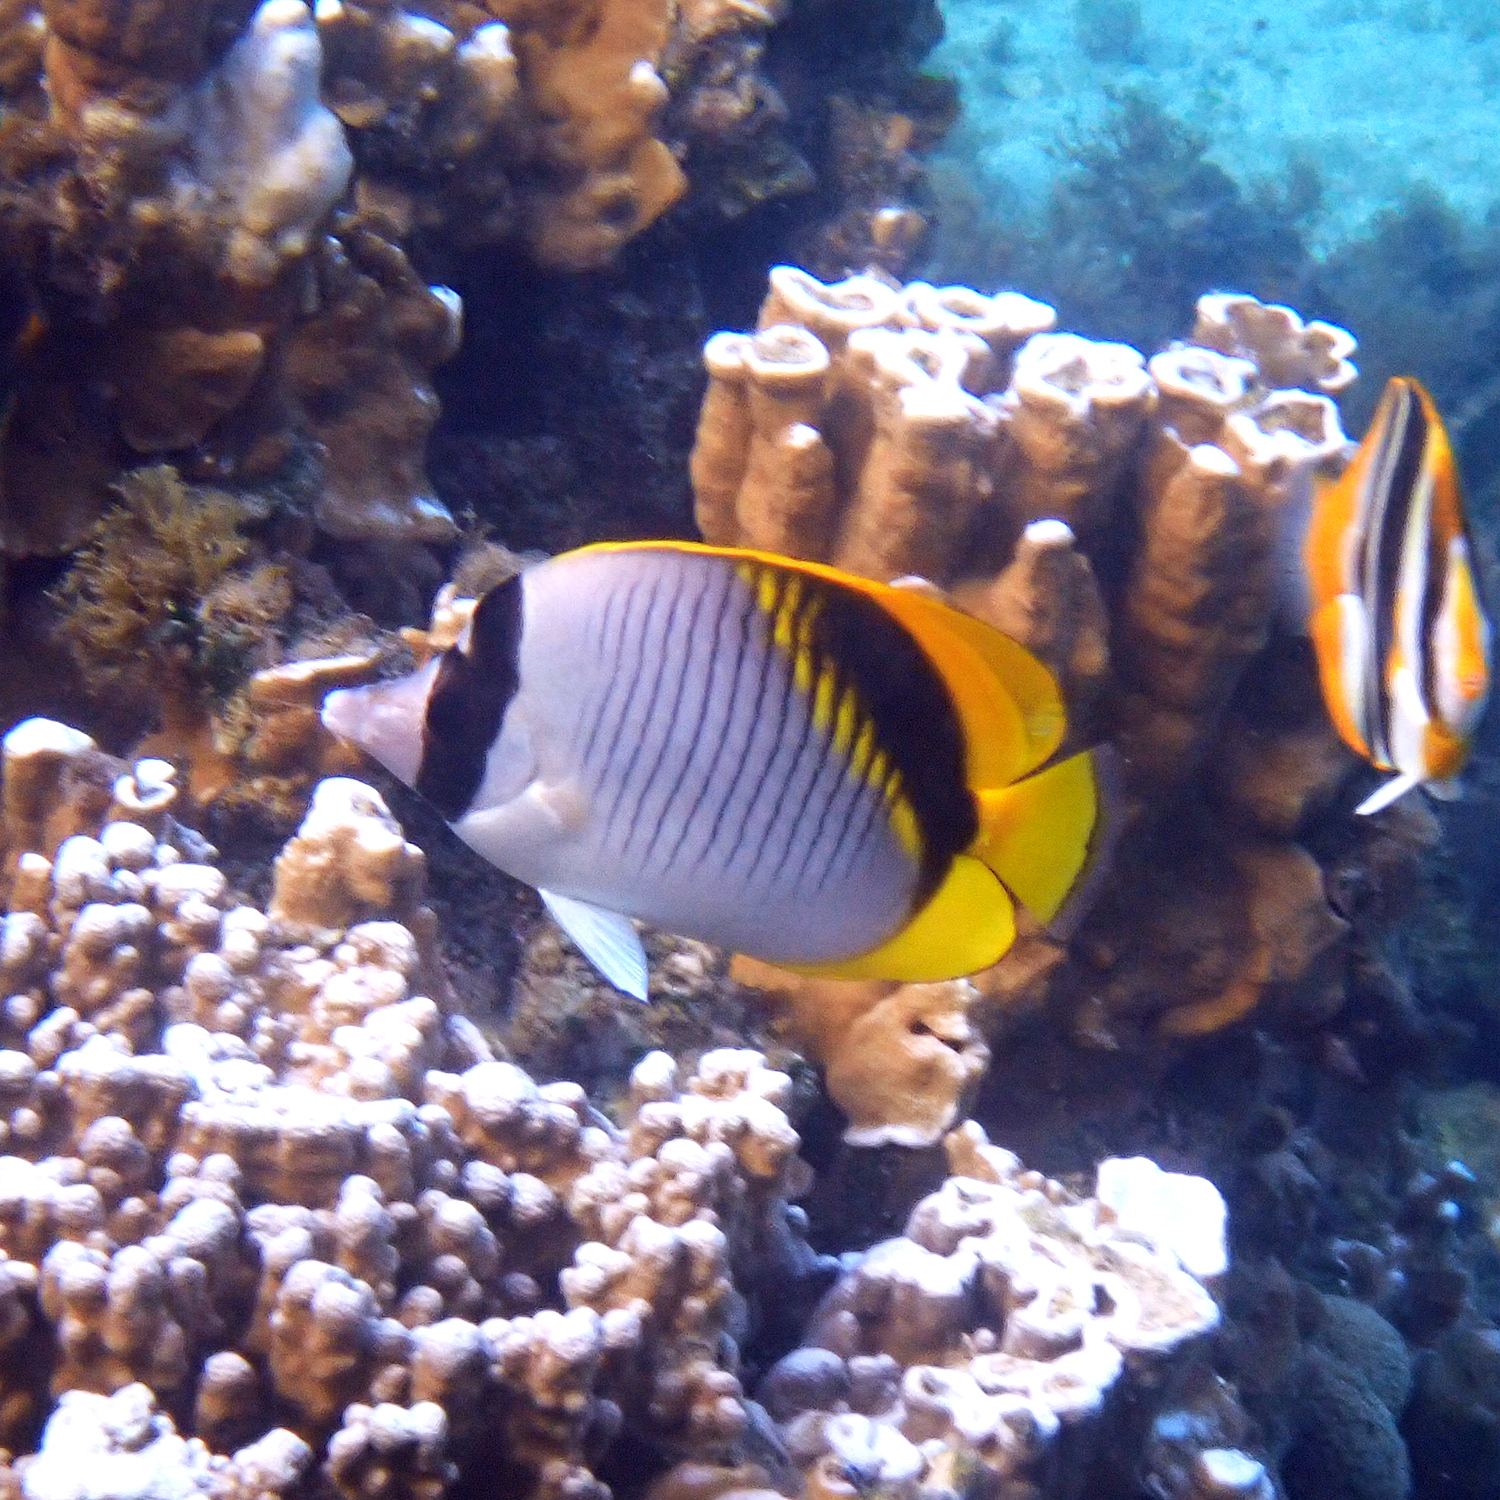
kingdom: Animalia
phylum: Chordata
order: Perciformes
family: Chaetodontidae
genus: Chaetodon
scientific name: Chaetodon lineolatus
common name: Lined butterflyfish
